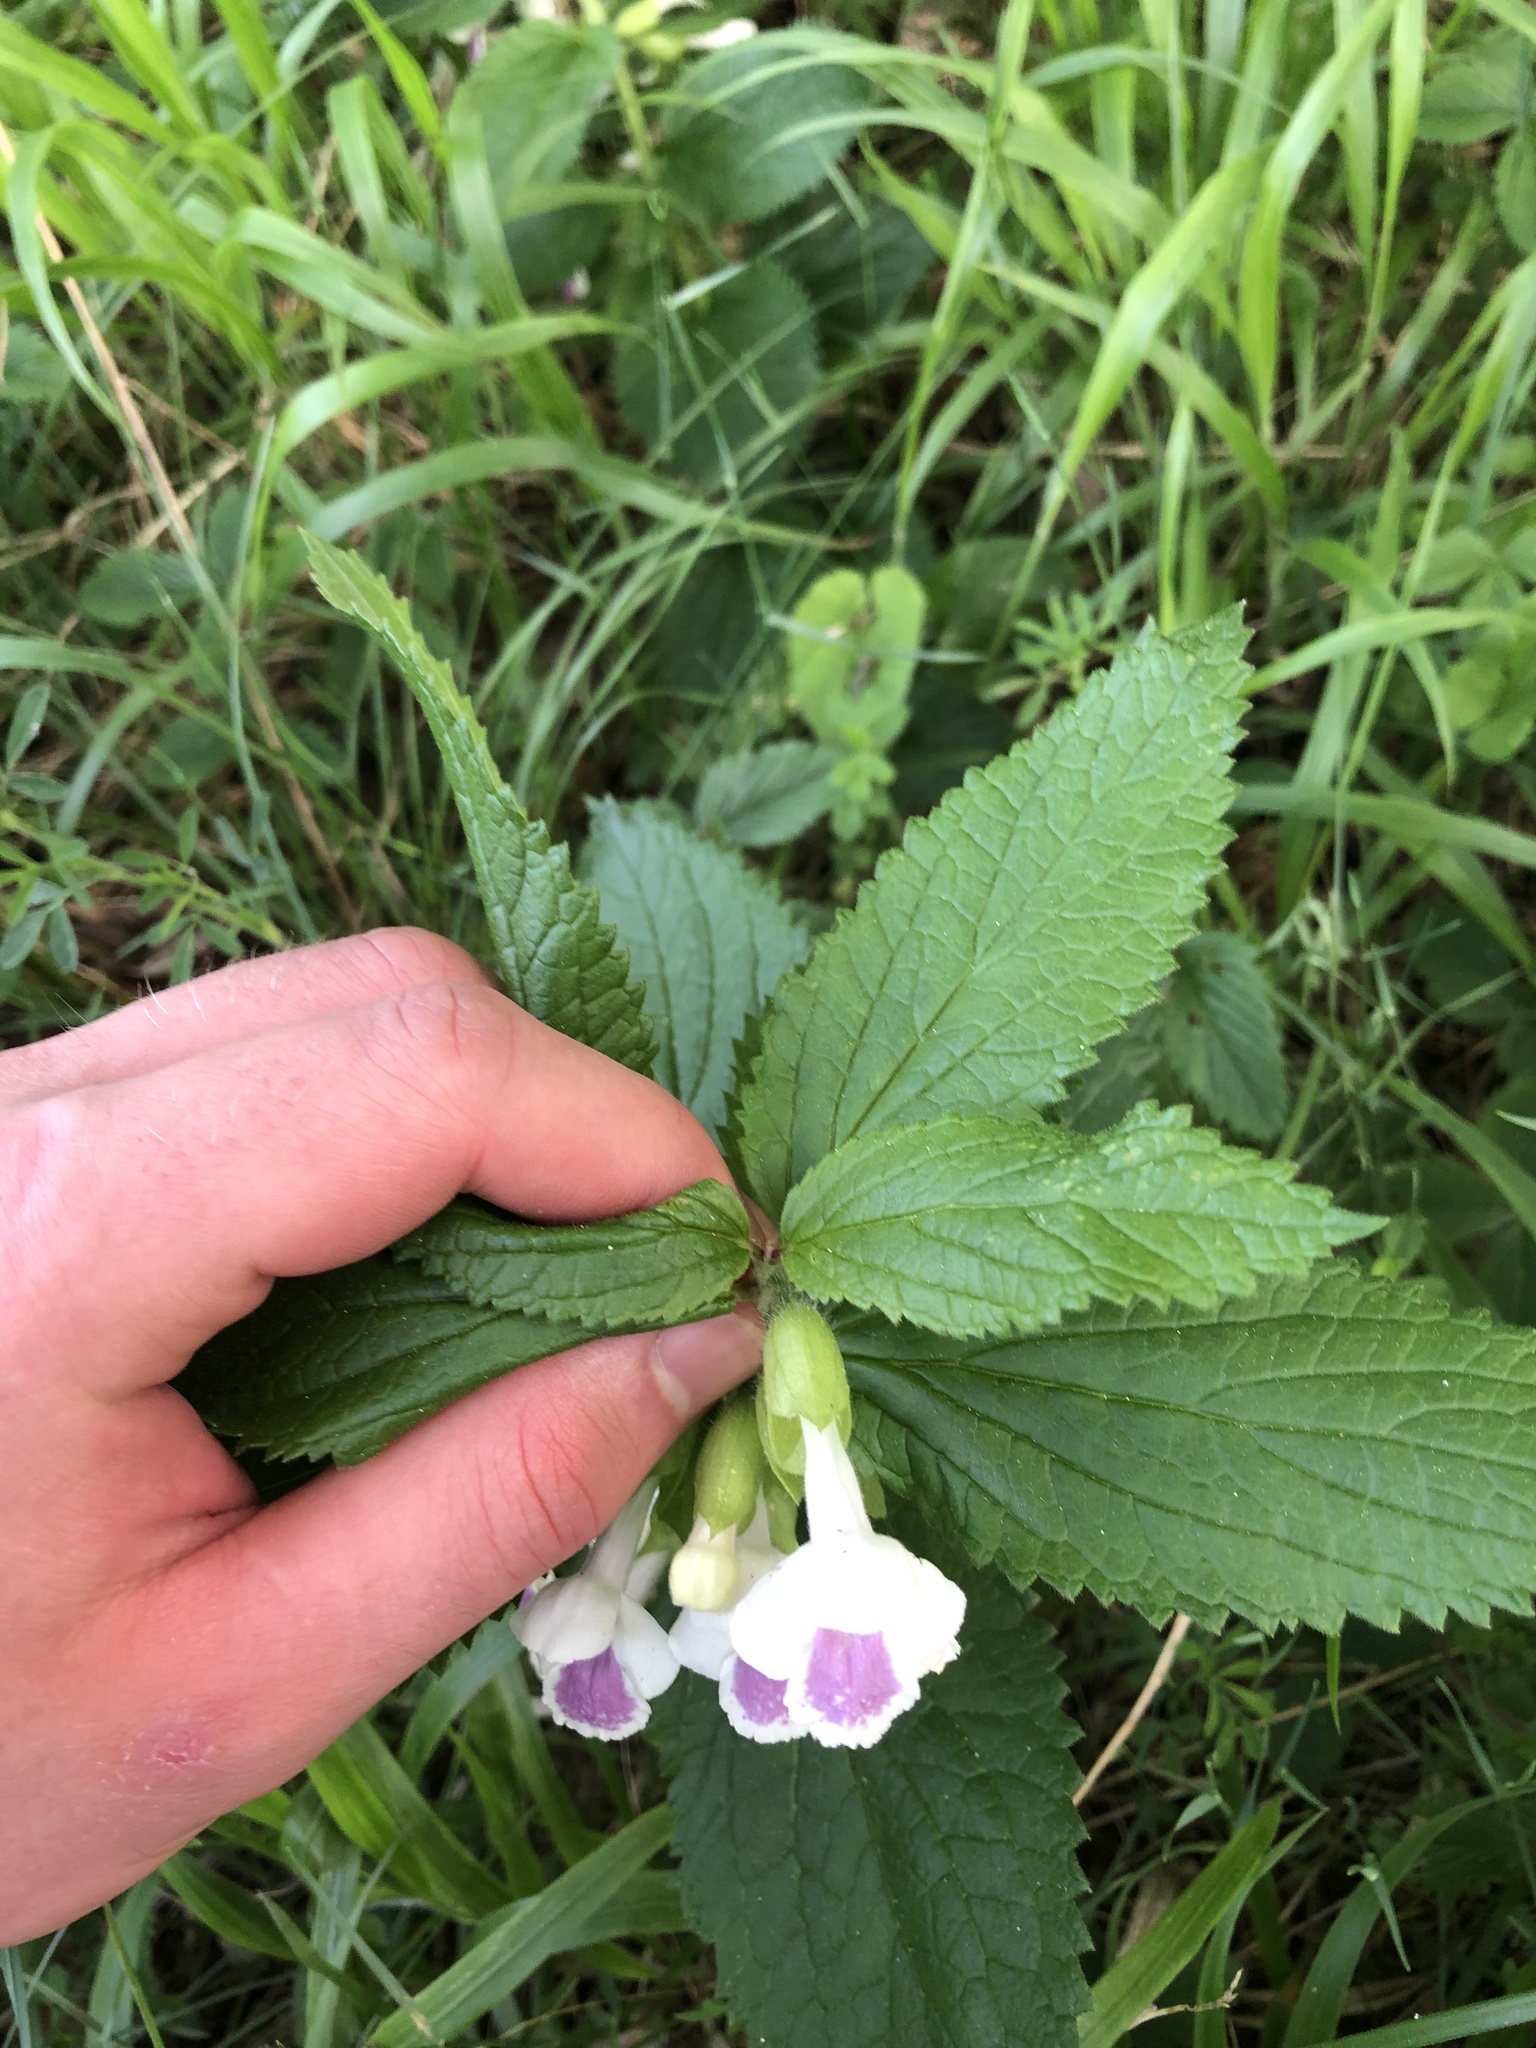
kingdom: Plantae
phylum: Tracheophyta
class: Magnoliopsida
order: Lamiales
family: Lamiaceae
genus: Melittis
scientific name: Melittis melissophyllum
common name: Bastard balm
